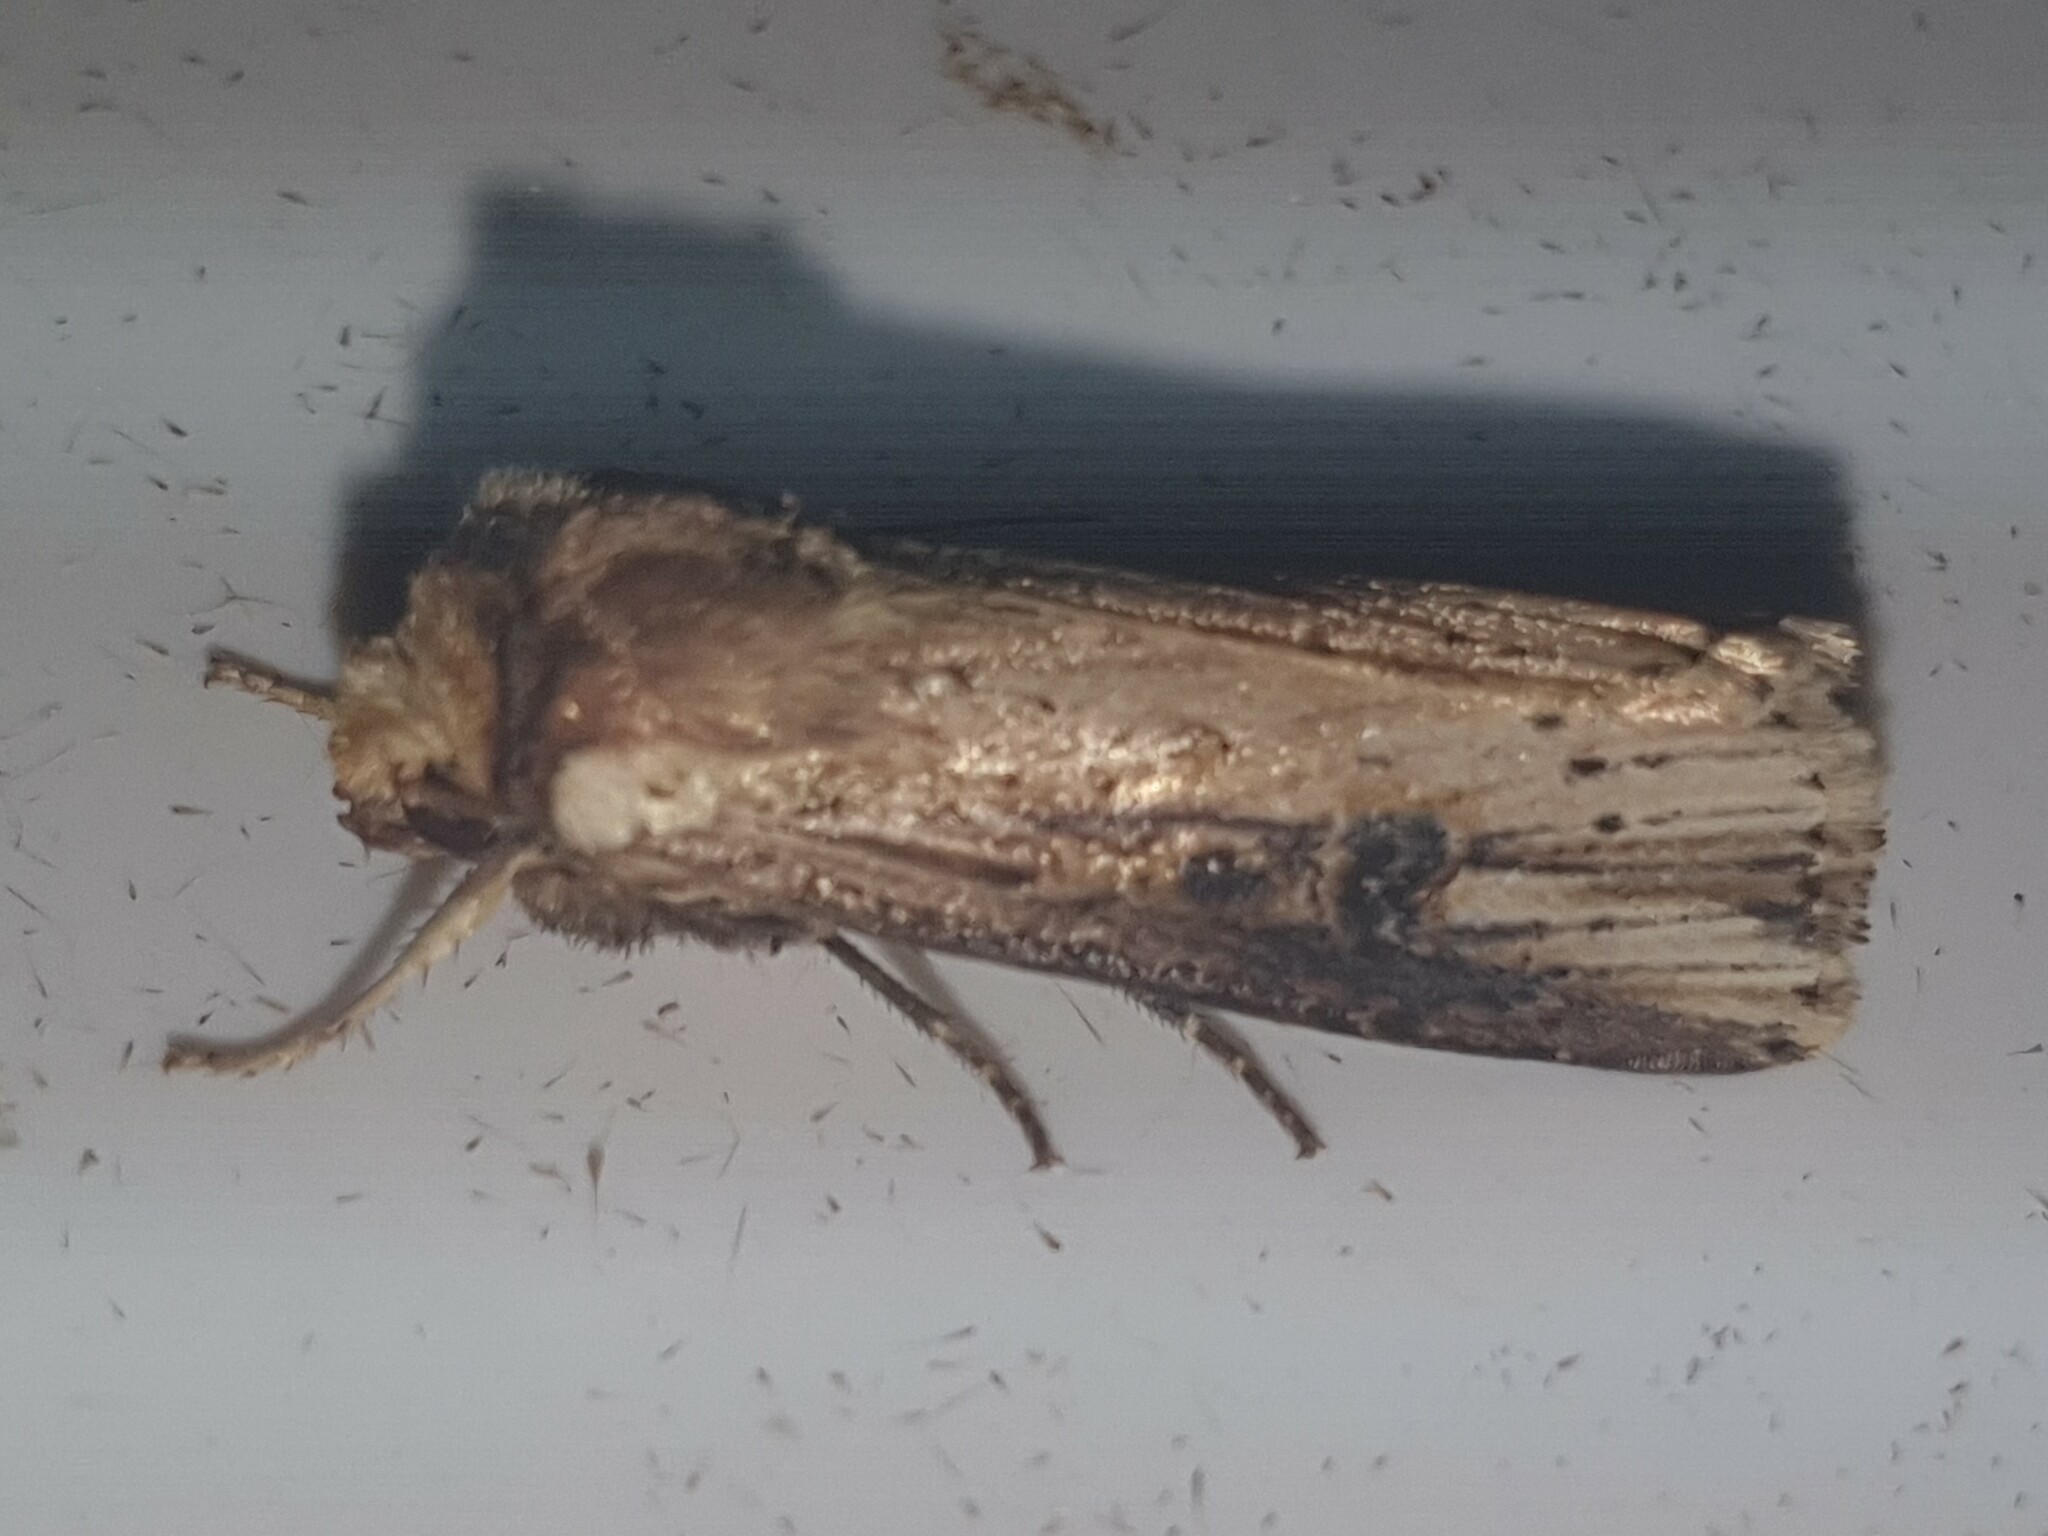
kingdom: Animalia
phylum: Arthropoda
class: Insecta
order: Lepidoptera
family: Noctuidae
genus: Axylia
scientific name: Axylia putris
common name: Flame
